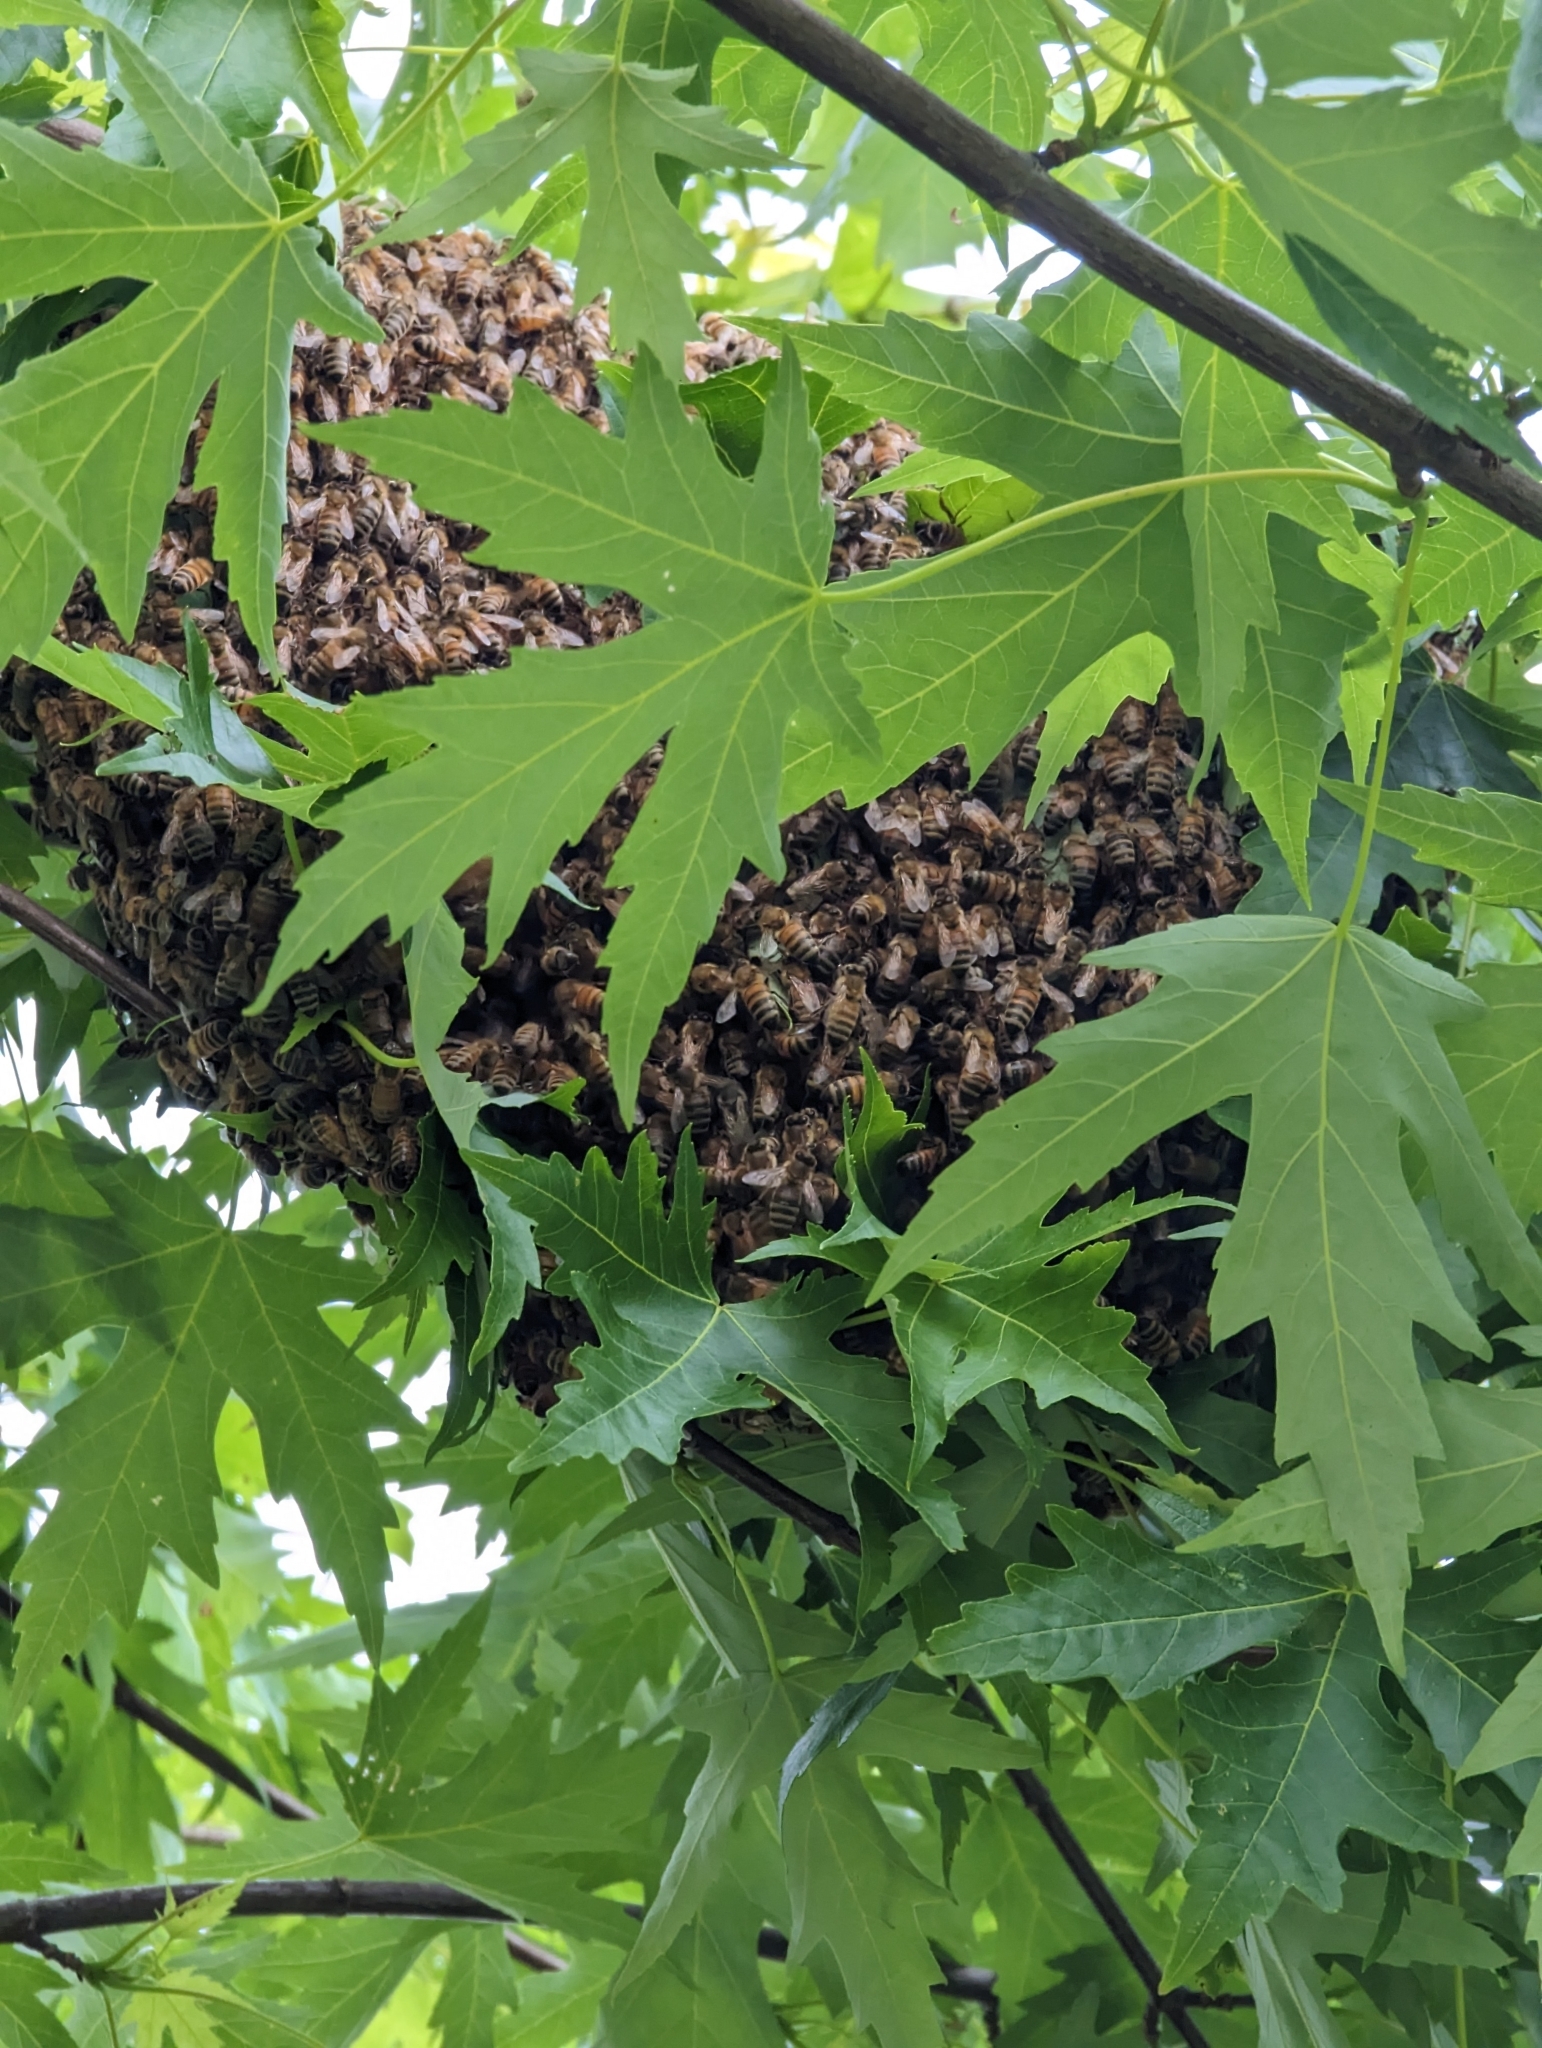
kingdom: Animalia
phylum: Arthropoda
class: Insecta
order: Hymenoptera
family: Apidae
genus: Apis
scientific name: Apis mellifera
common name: Honey bee
